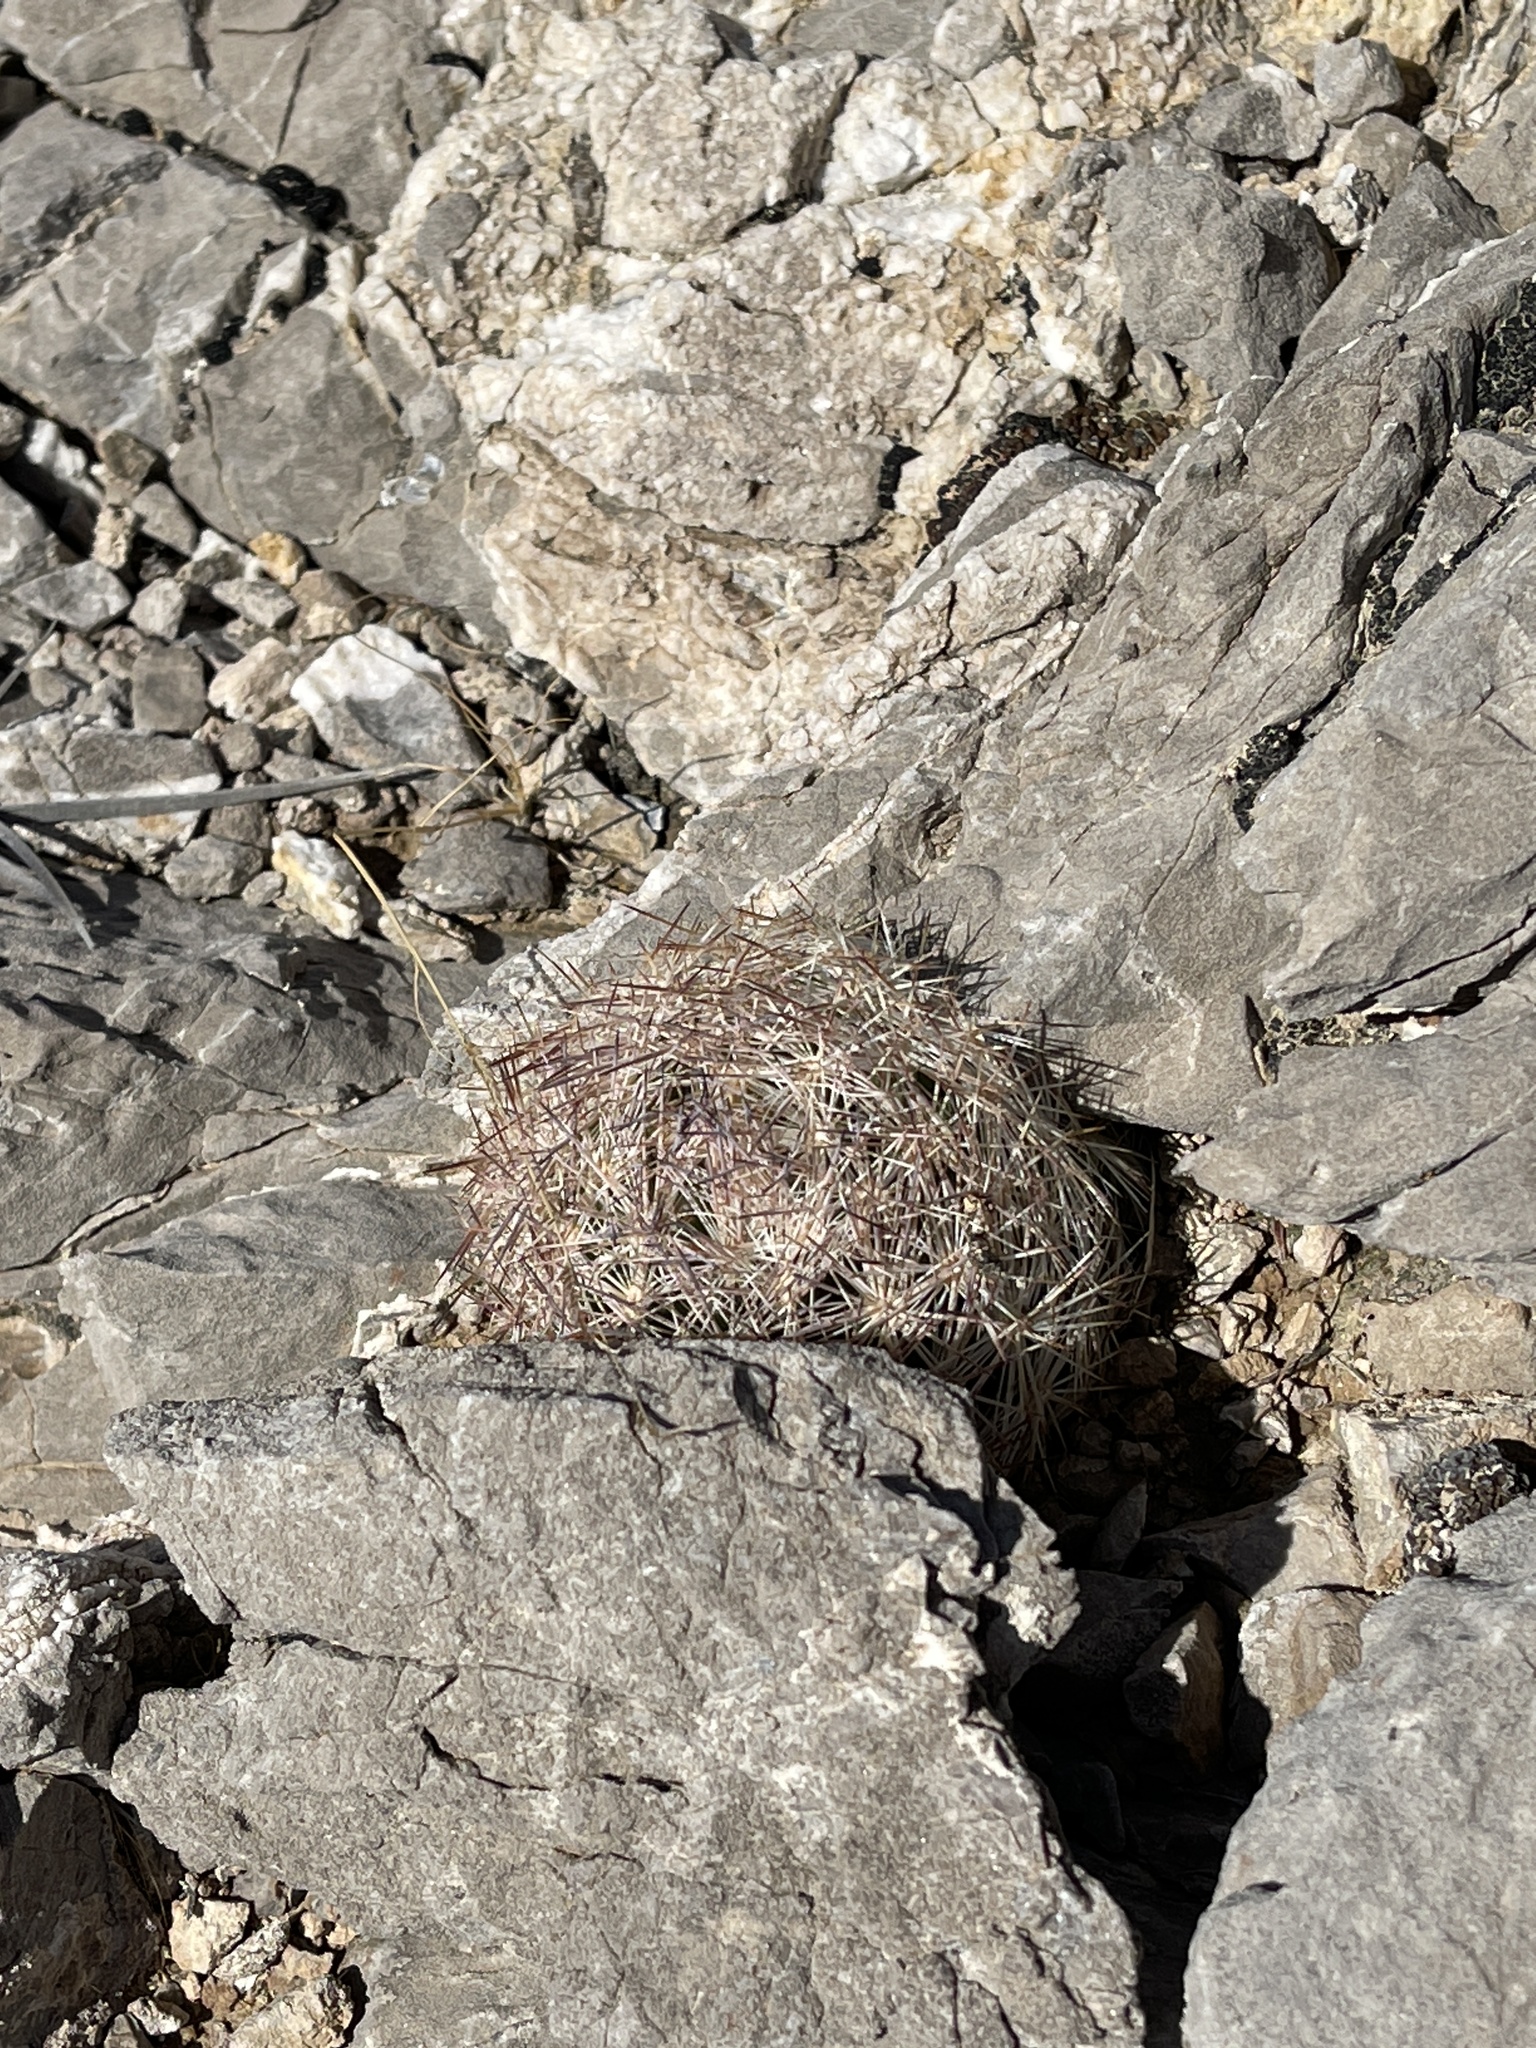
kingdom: Plantae
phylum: Tracheophyta
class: Magnoliopsida
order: Caryophyllales
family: Cactaceae
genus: Pelecyphora
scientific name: Pelecyphora dasyacantha
